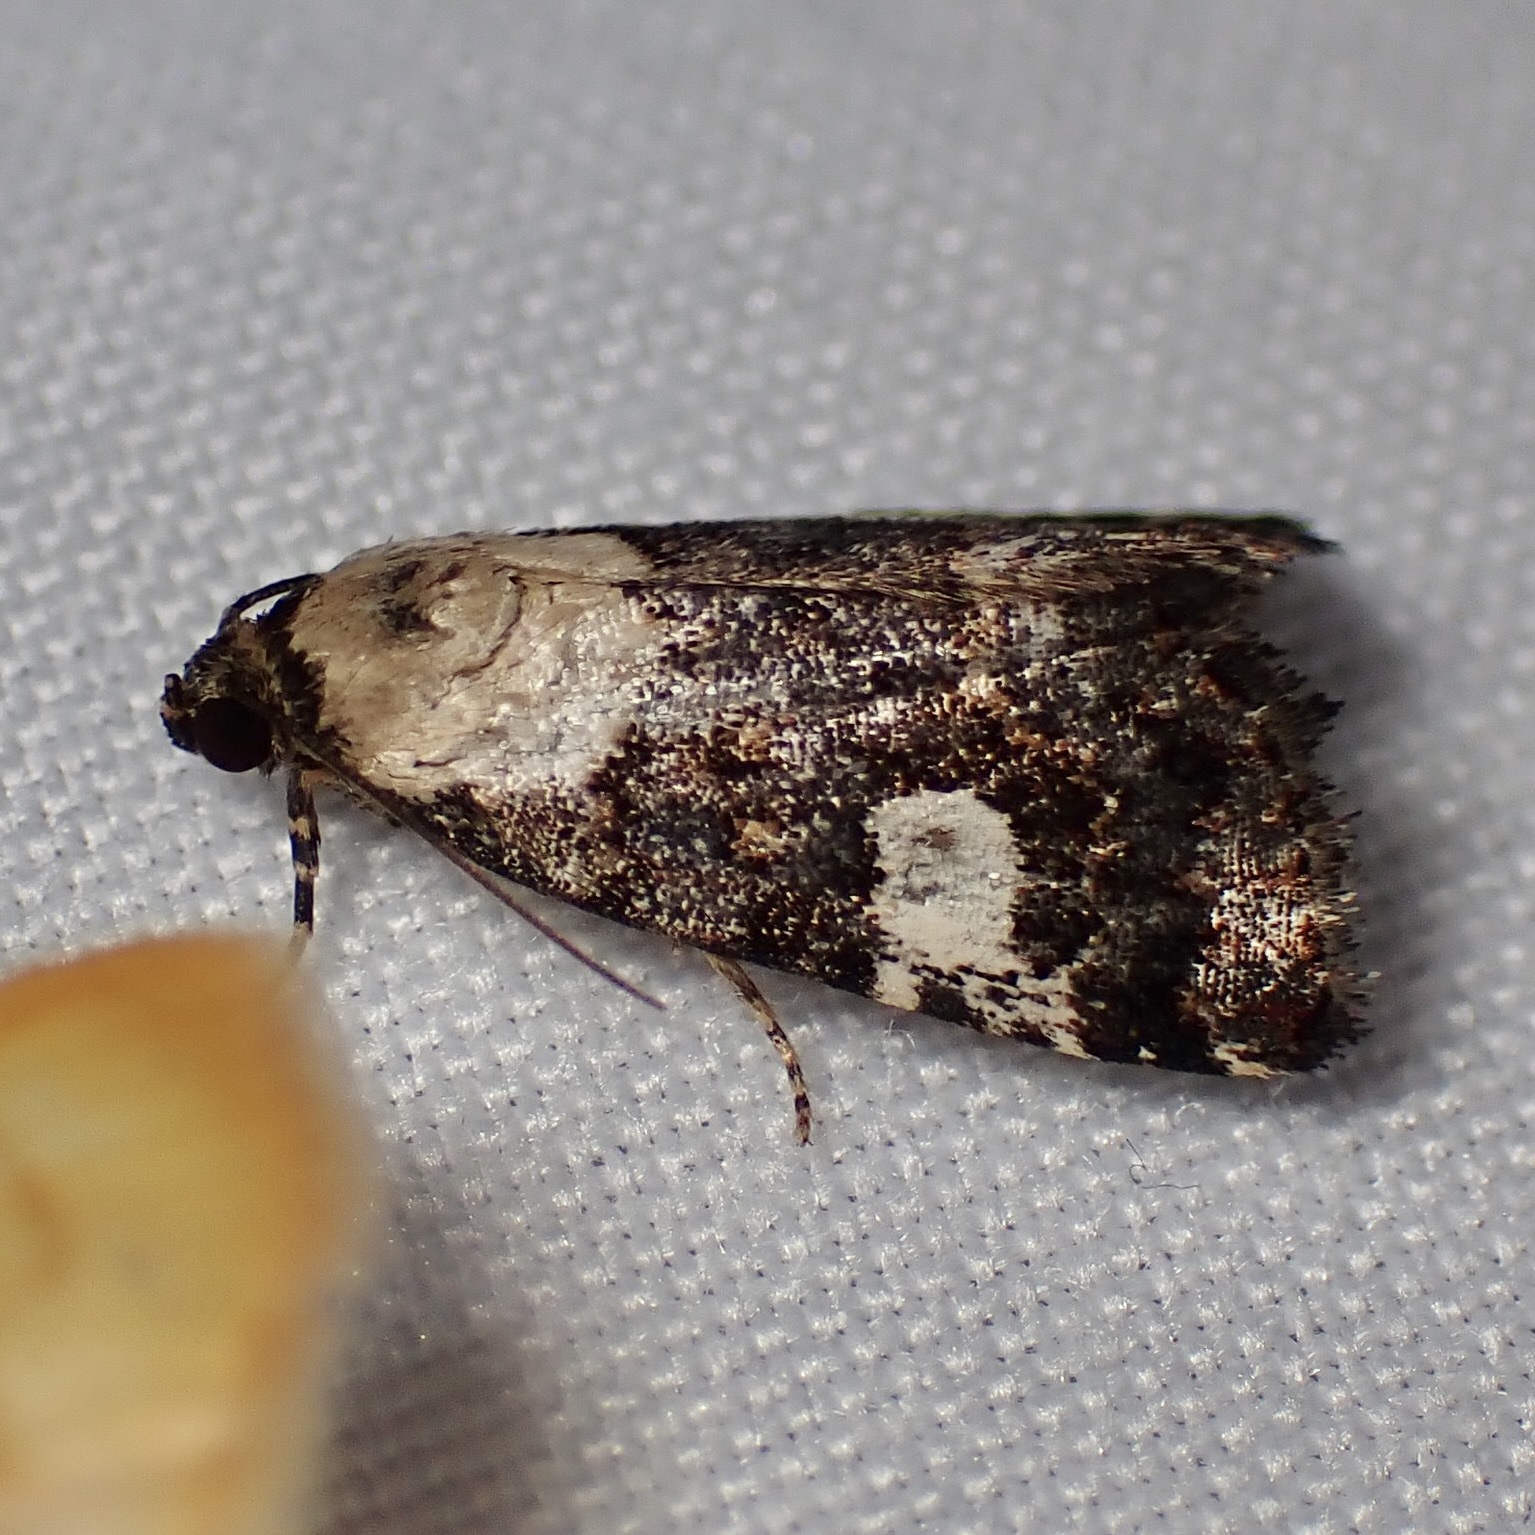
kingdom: Animalia
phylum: Arthropoda
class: Insecta
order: Lepidoptera
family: Noctuidae
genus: Lithacodia
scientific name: Lithacodia phya
